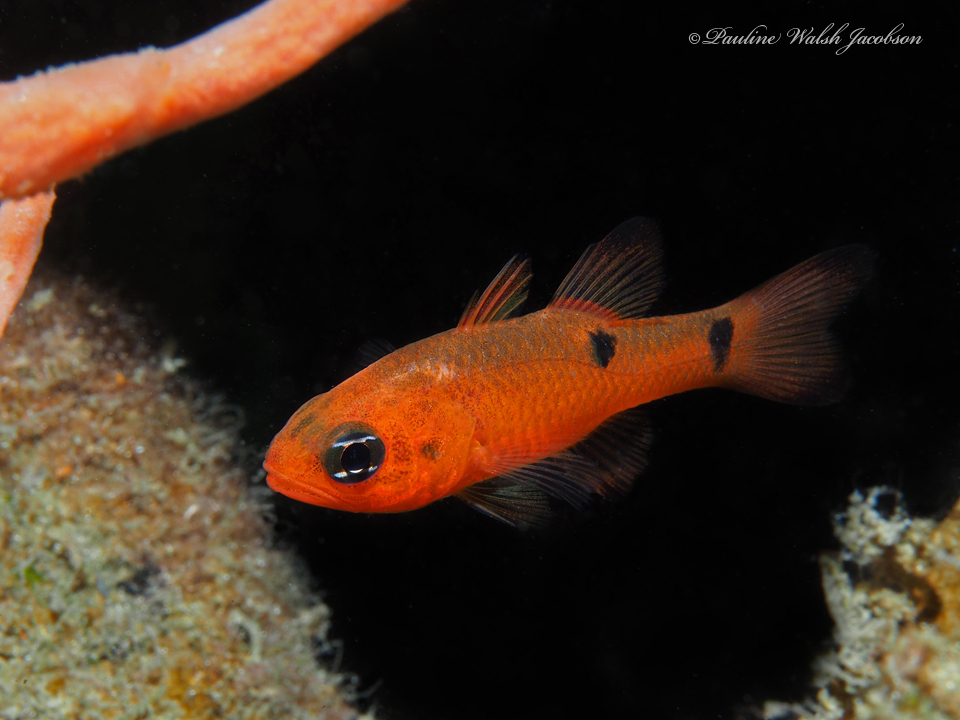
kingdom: Animalia
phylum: Chordata
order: Perciformes
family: Apogonidae
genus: Apogon
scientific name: Apogon pseudomaculatus
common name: Twospot cardinalfish
